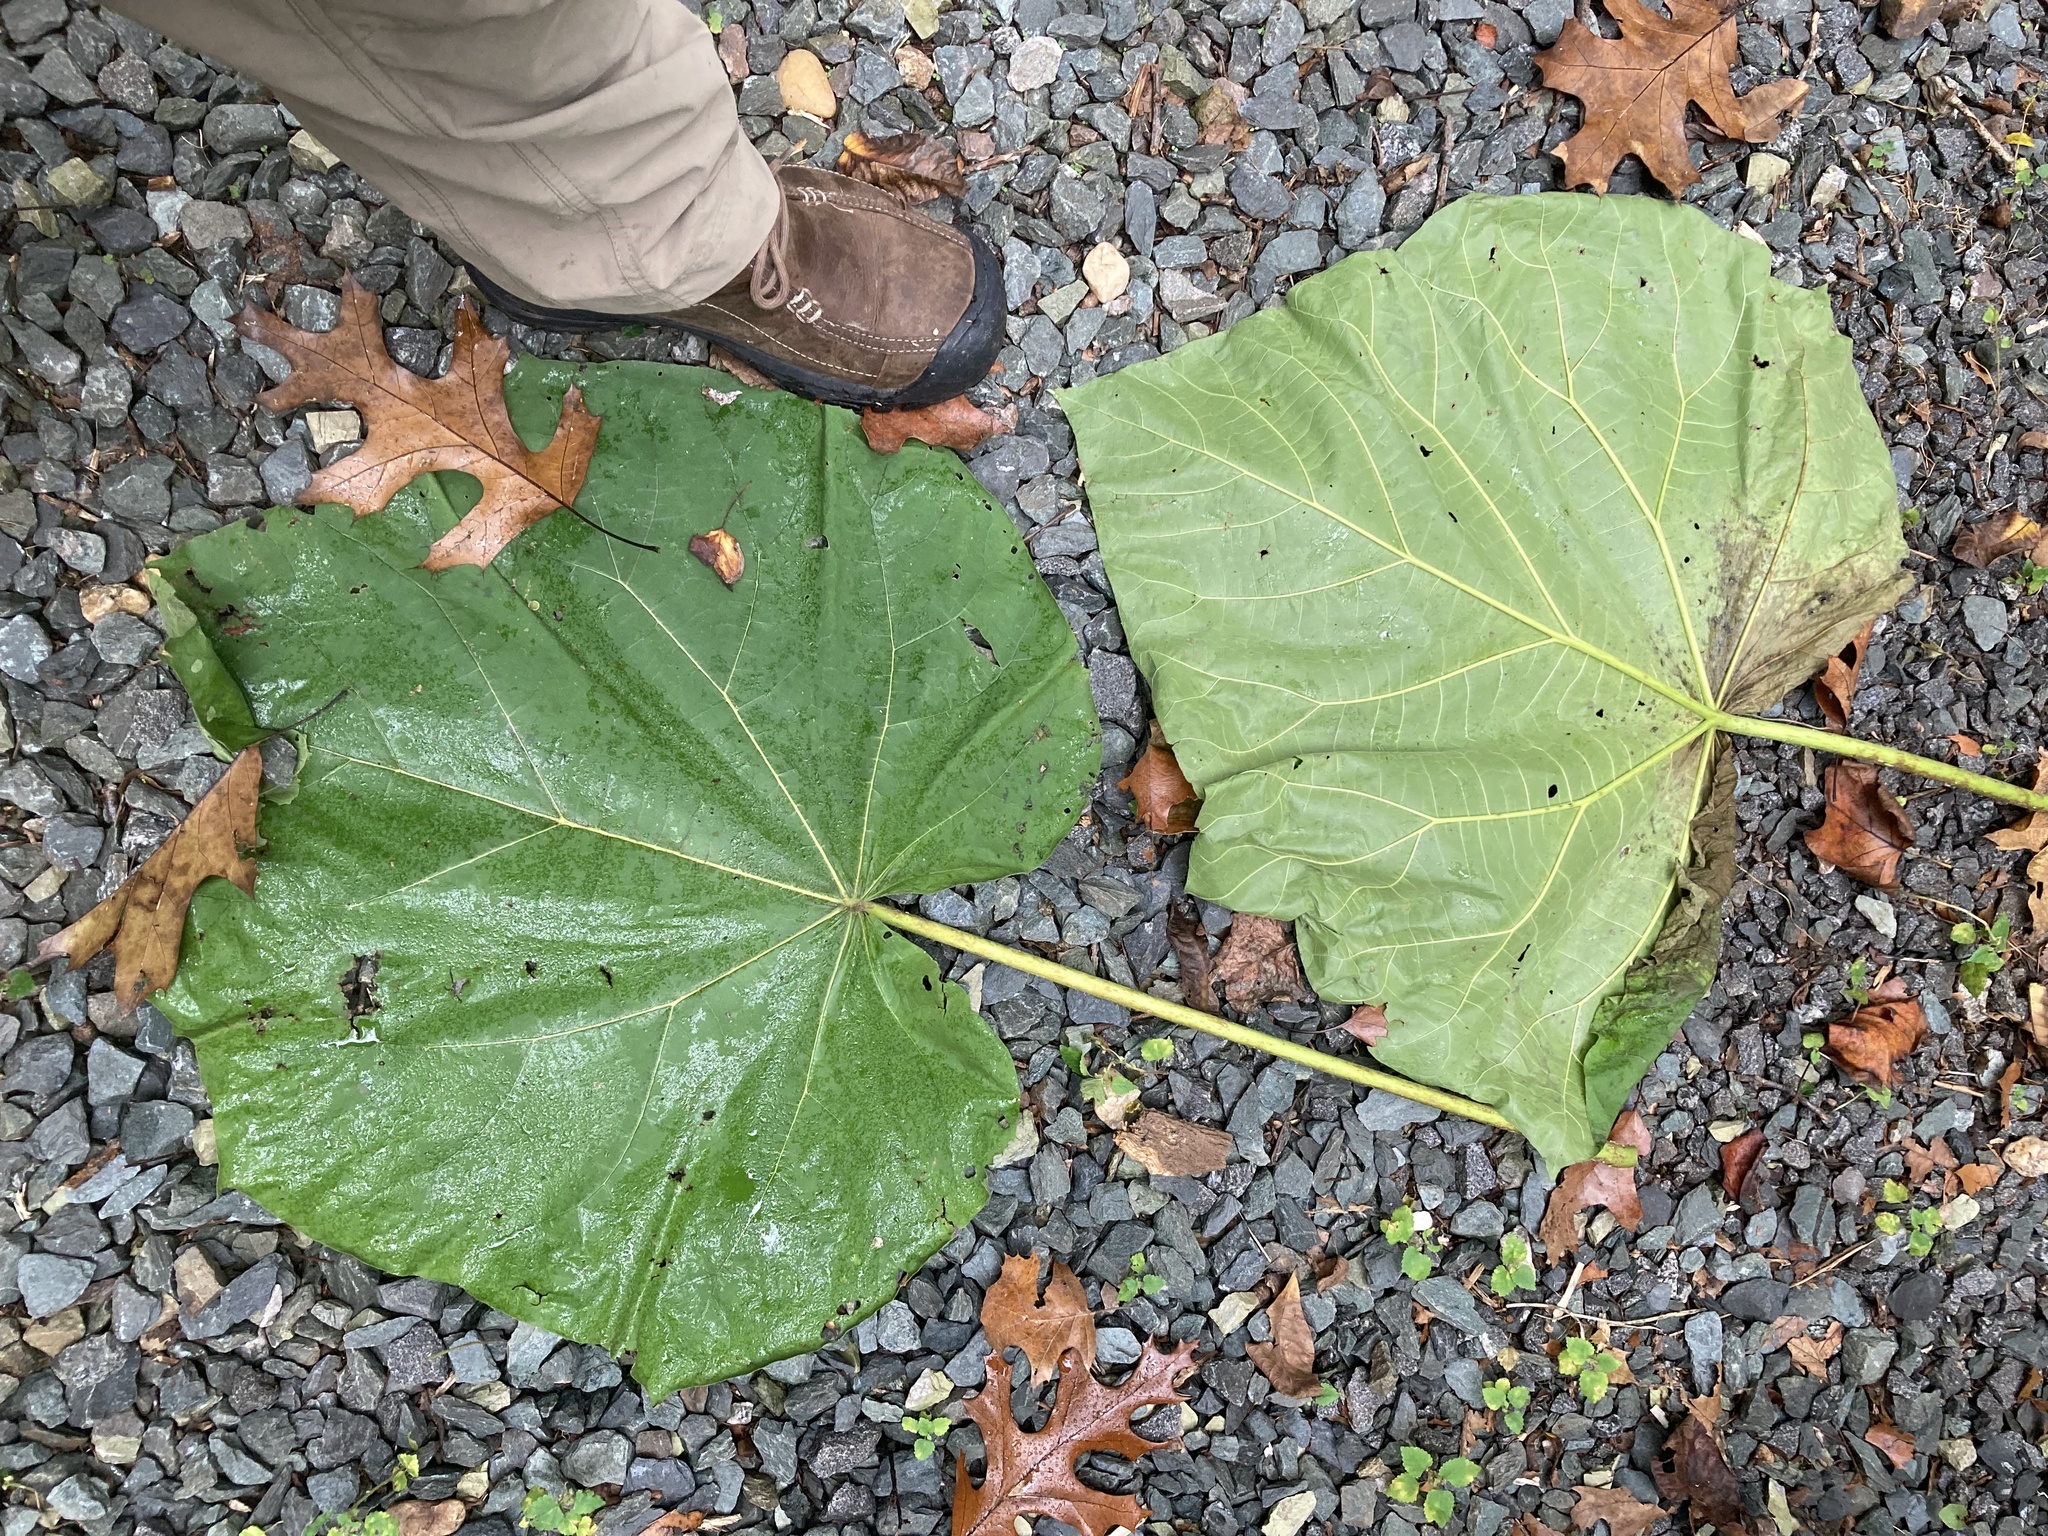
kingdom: Plantae
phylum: Tracheophyta
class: Magnoliopsida
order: Lamiales
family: Paulowniaceae
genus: Paulownia
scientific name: Paulownia tomentosa
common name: Foxglove-tree
